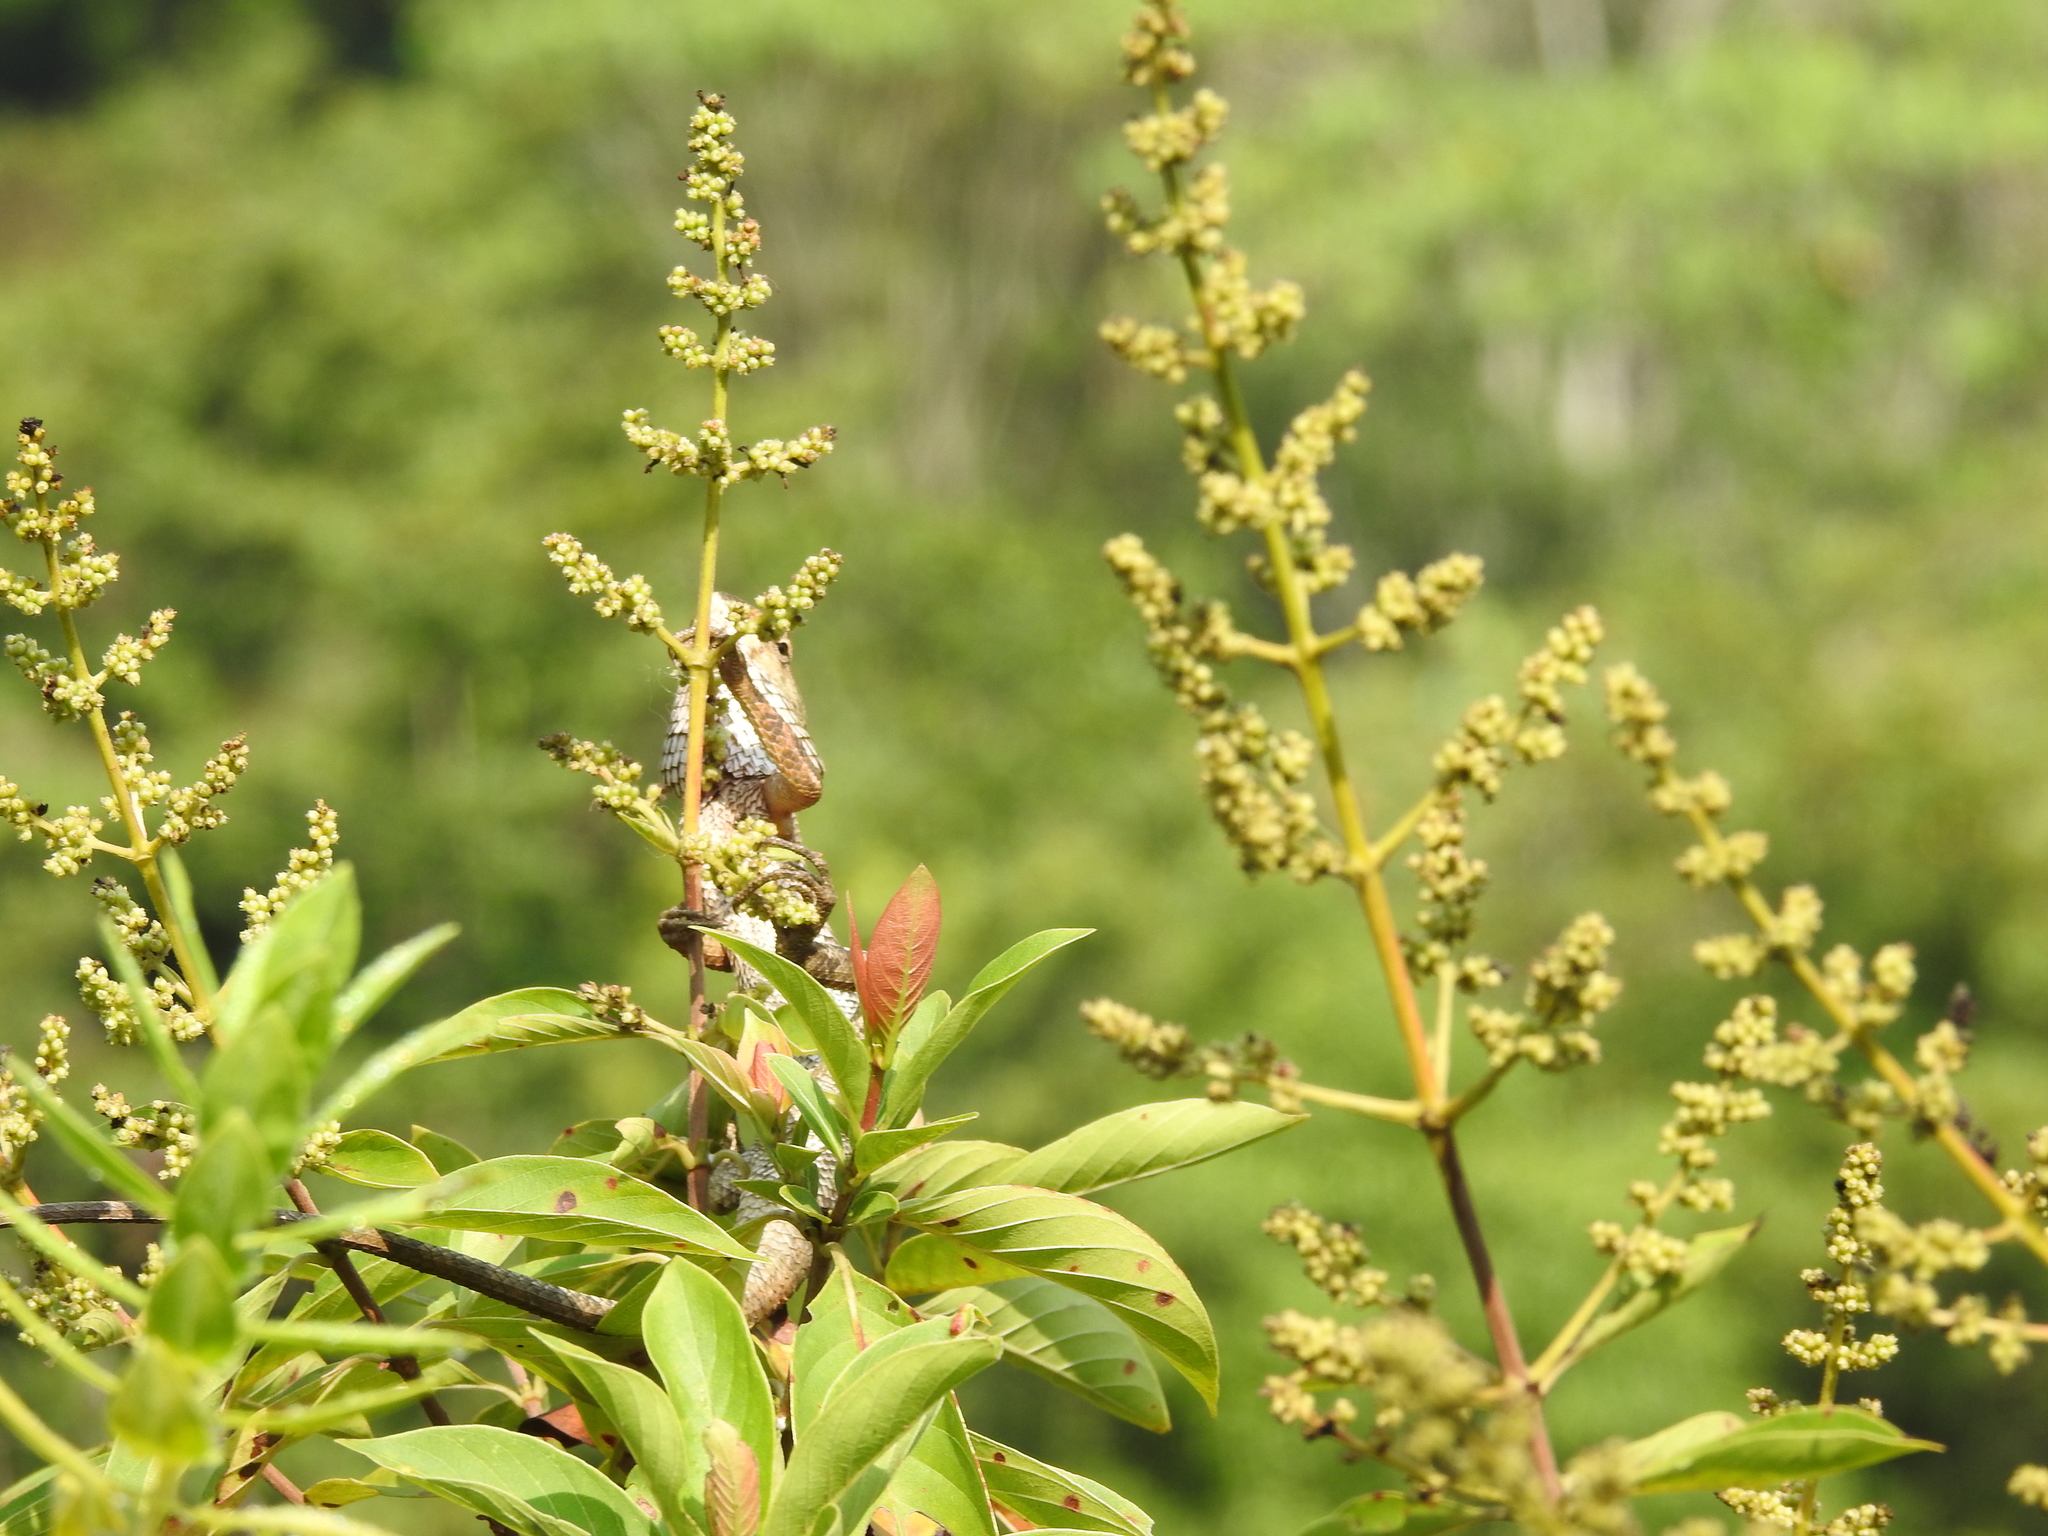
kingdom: Animalia
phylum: Chordata
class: Squamata
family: Agamidae
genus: Calotes
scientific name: Calotes versicolor
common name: Oriental garden lizard
